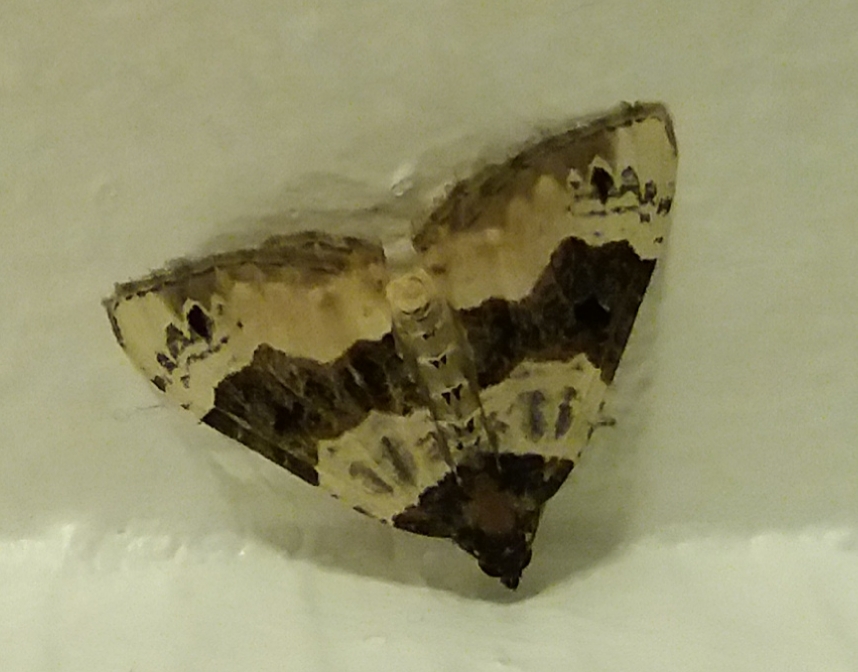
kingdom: Animalia
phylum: Arthropoda
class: Insecta
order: Lepidoptera
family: Geometridae
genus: Cosmorhoe
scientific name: Cosmorhoe ocellata
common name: Purple bar
